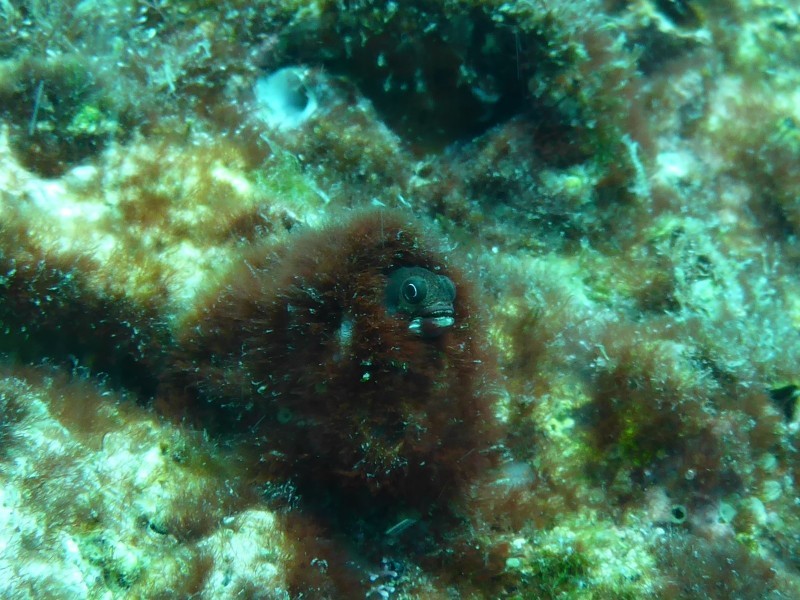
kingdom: Animalia
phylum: Chordata
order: Perciformes
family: Chaenopsidae
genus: Acanthemblemaria
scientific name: Acanthemblemaria
